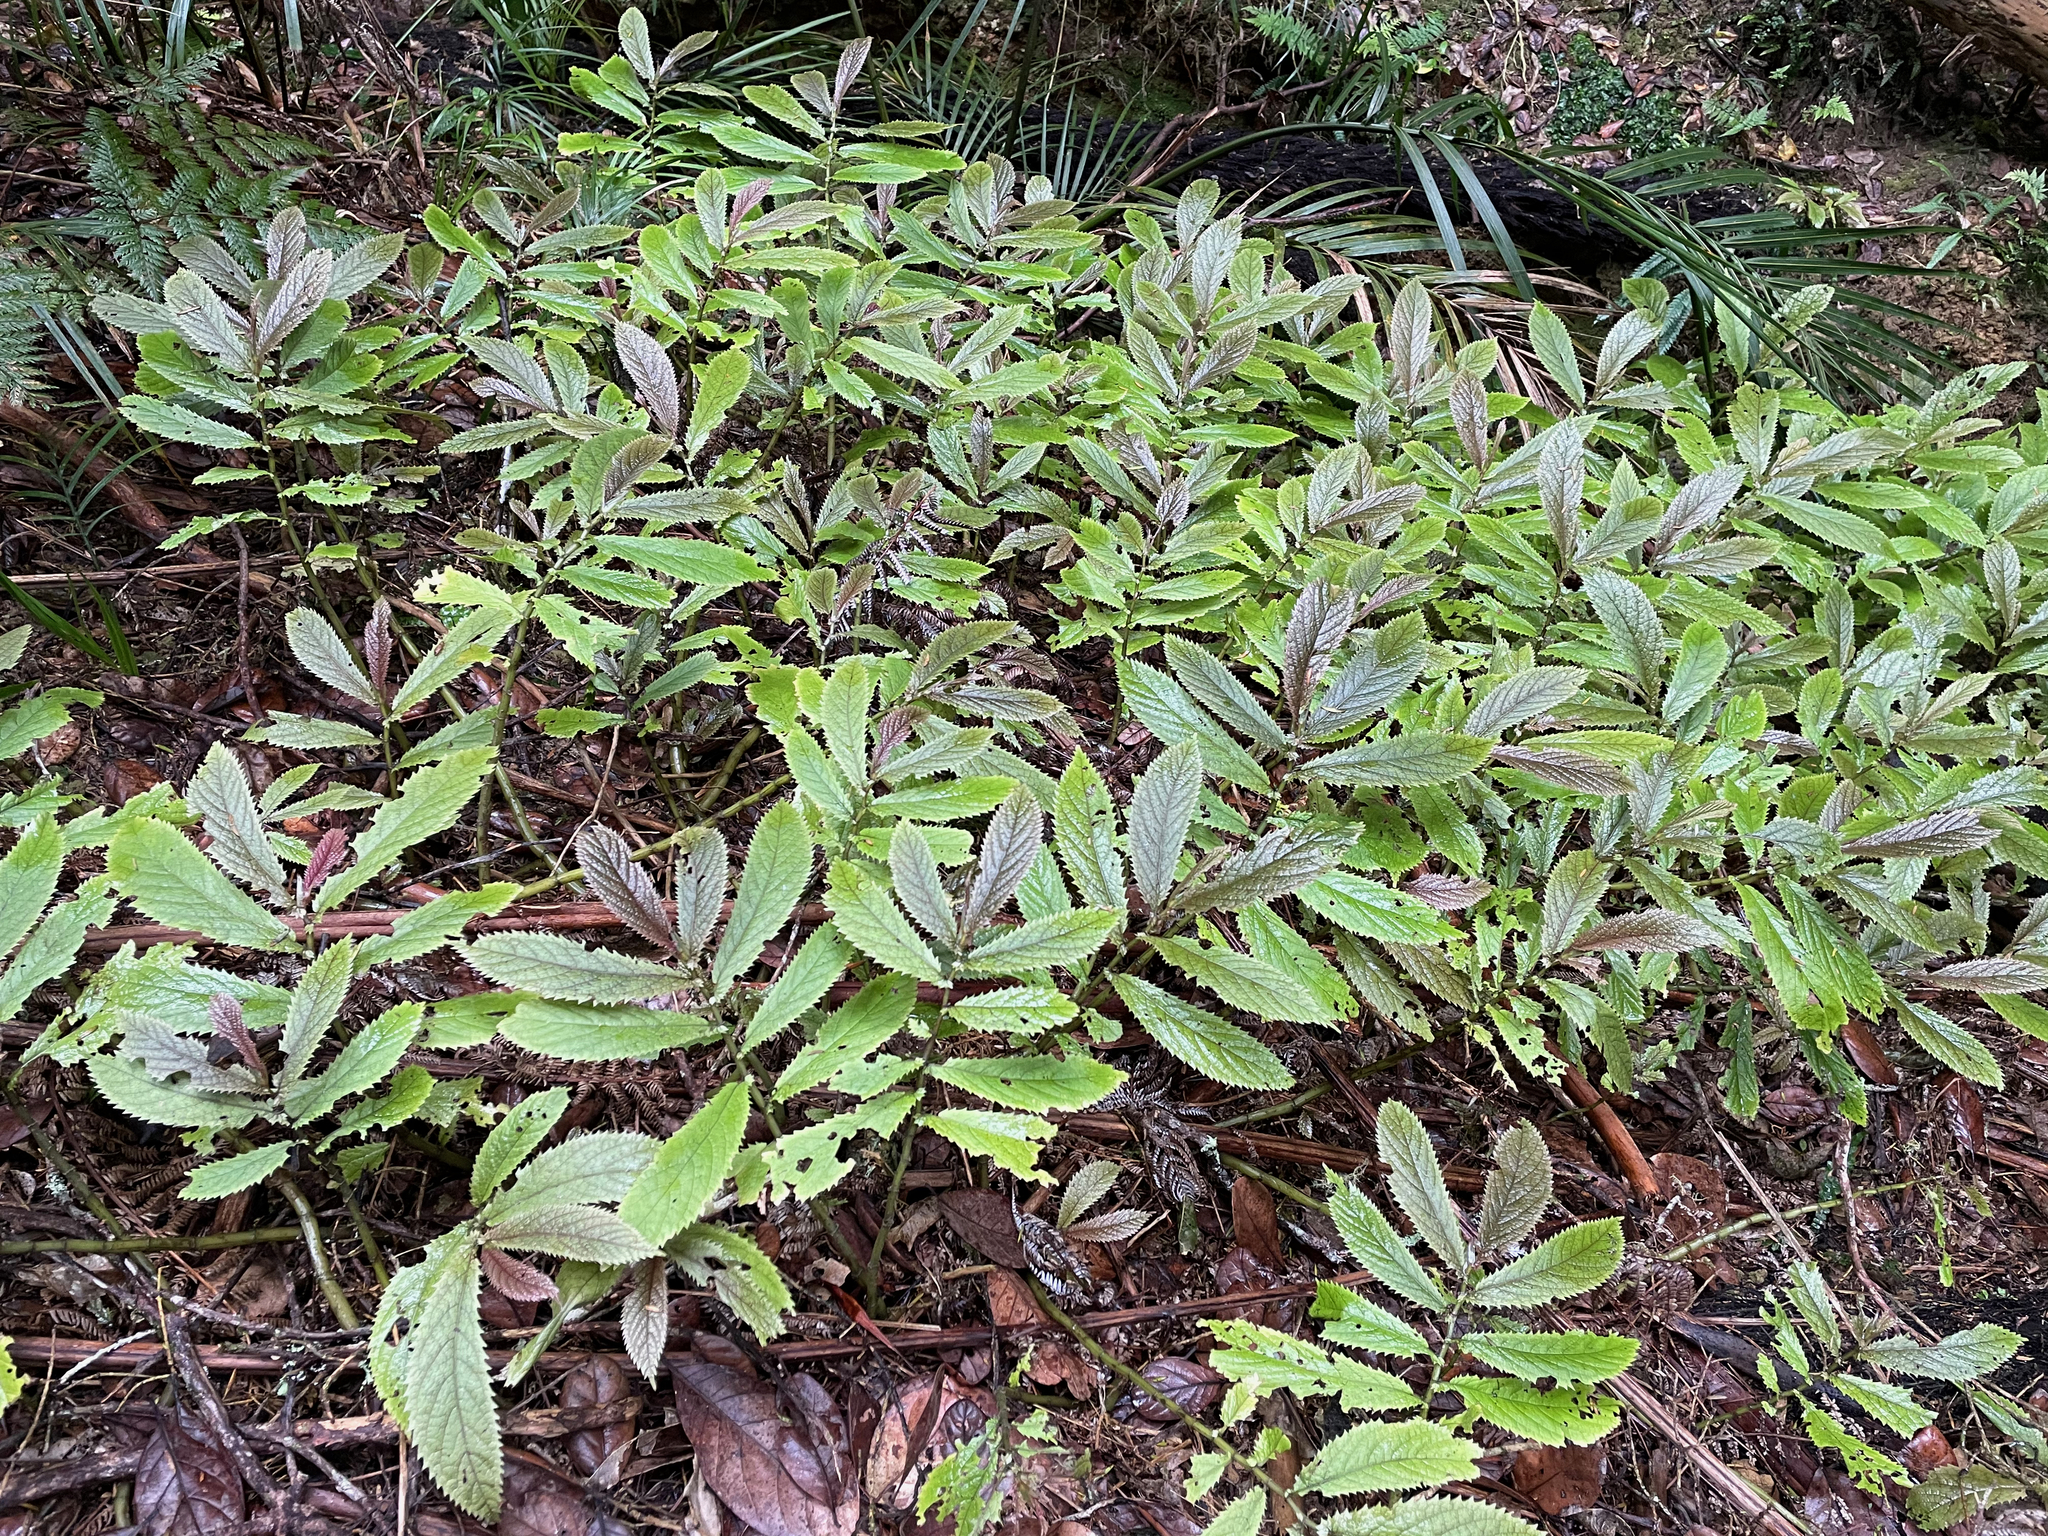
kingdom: Plantae
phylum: Tracheophyta
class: Magnoliopsida
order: Rosales
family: Urticaceae
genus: Elatostema
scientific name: Elatostema rugosum
